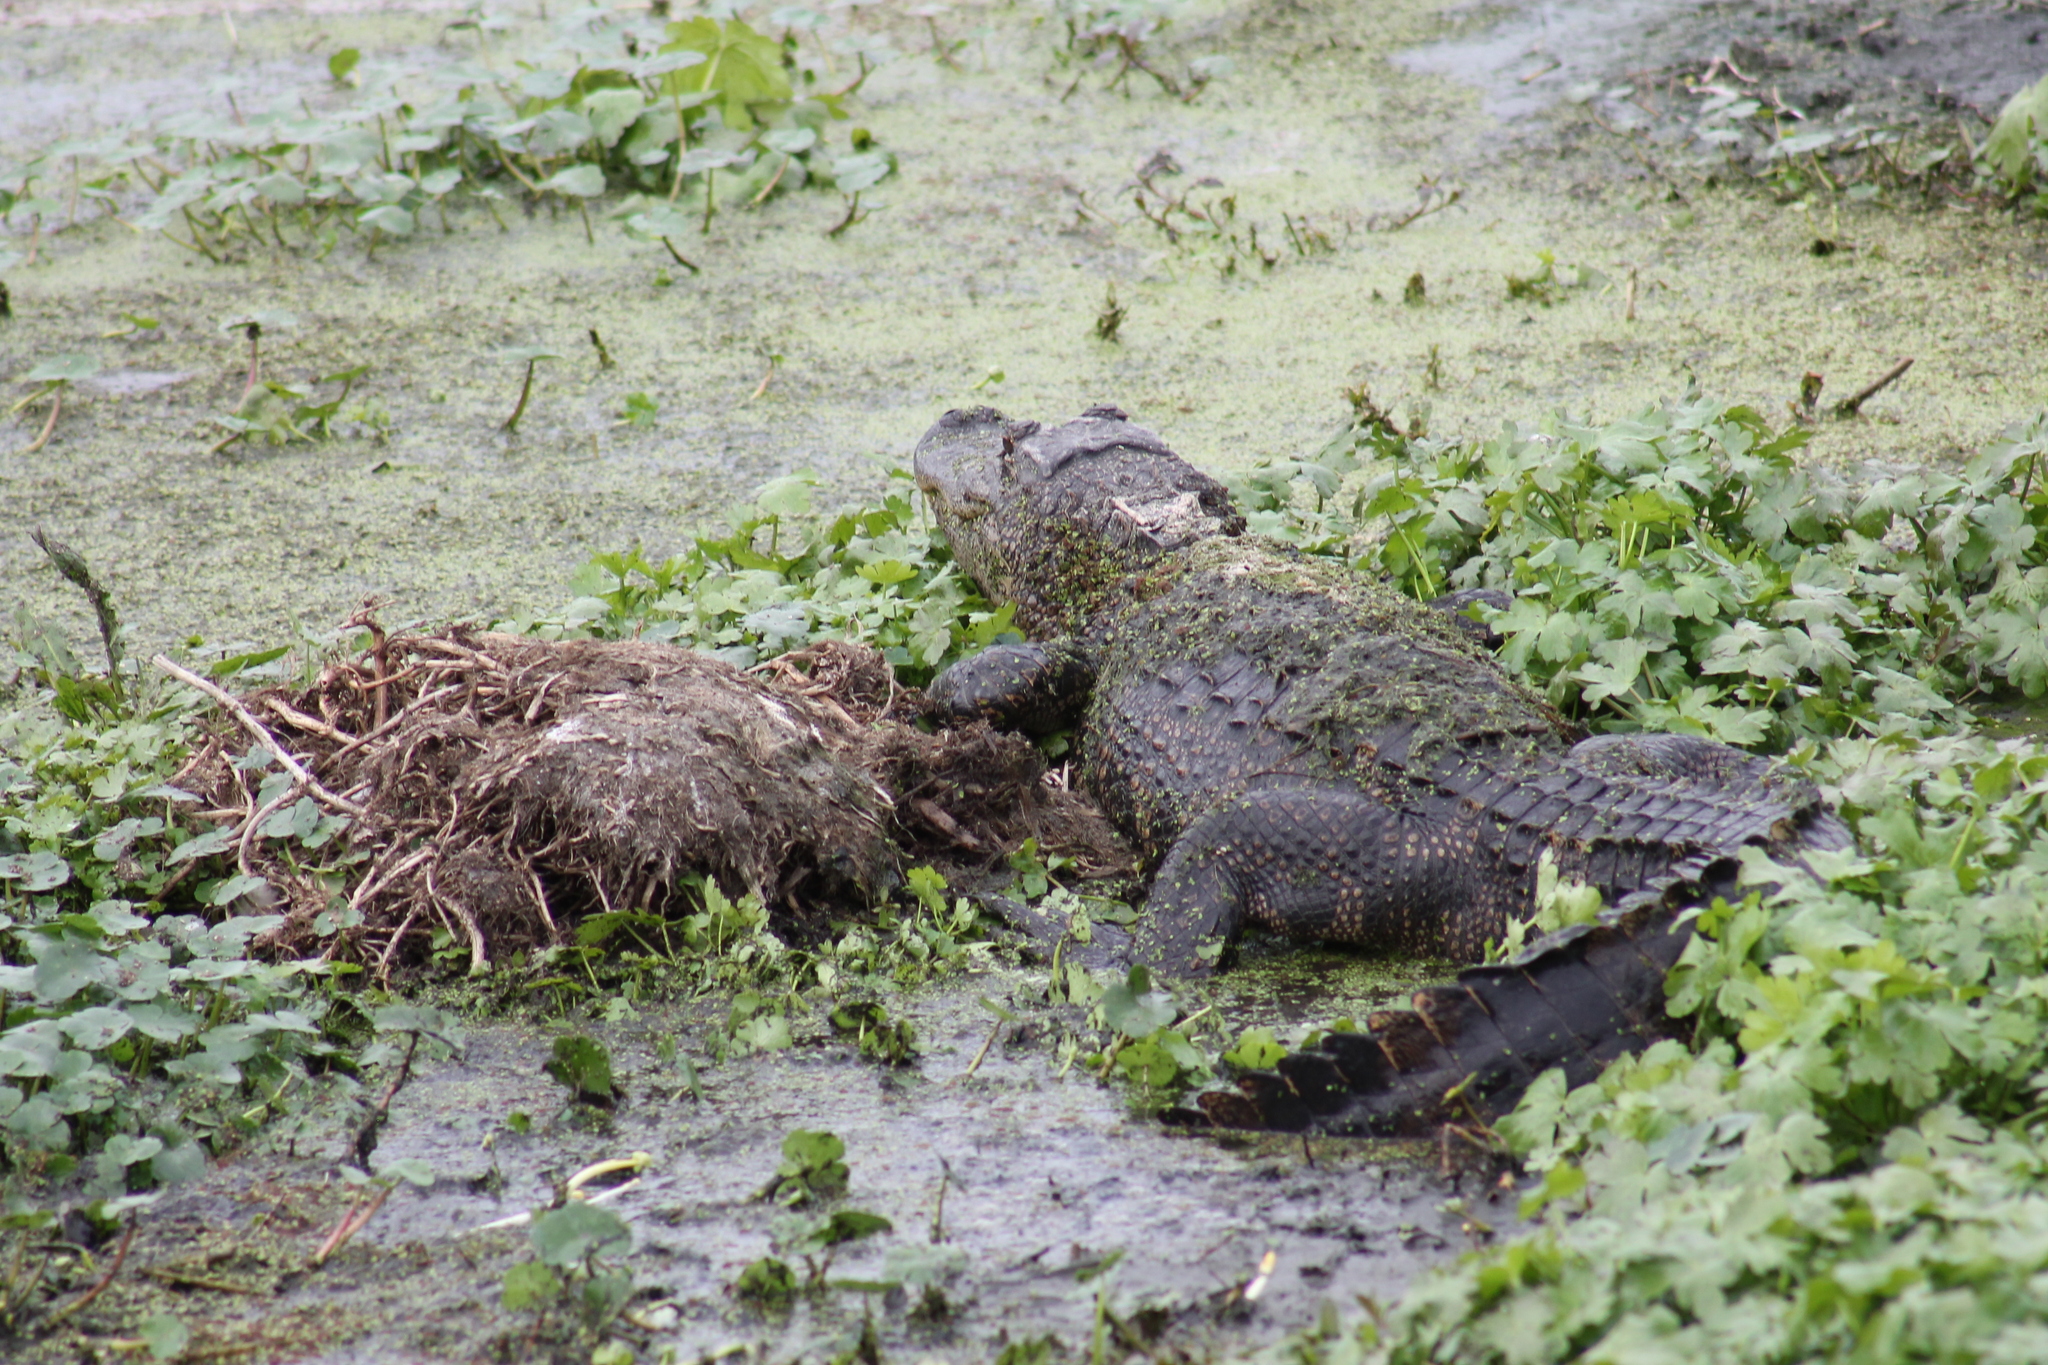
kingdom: Animalia
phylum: Chordata
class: Crocodylia
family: Alligatoridae
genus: Alligator
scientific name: Alligator mississippiensis
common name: American alligator
